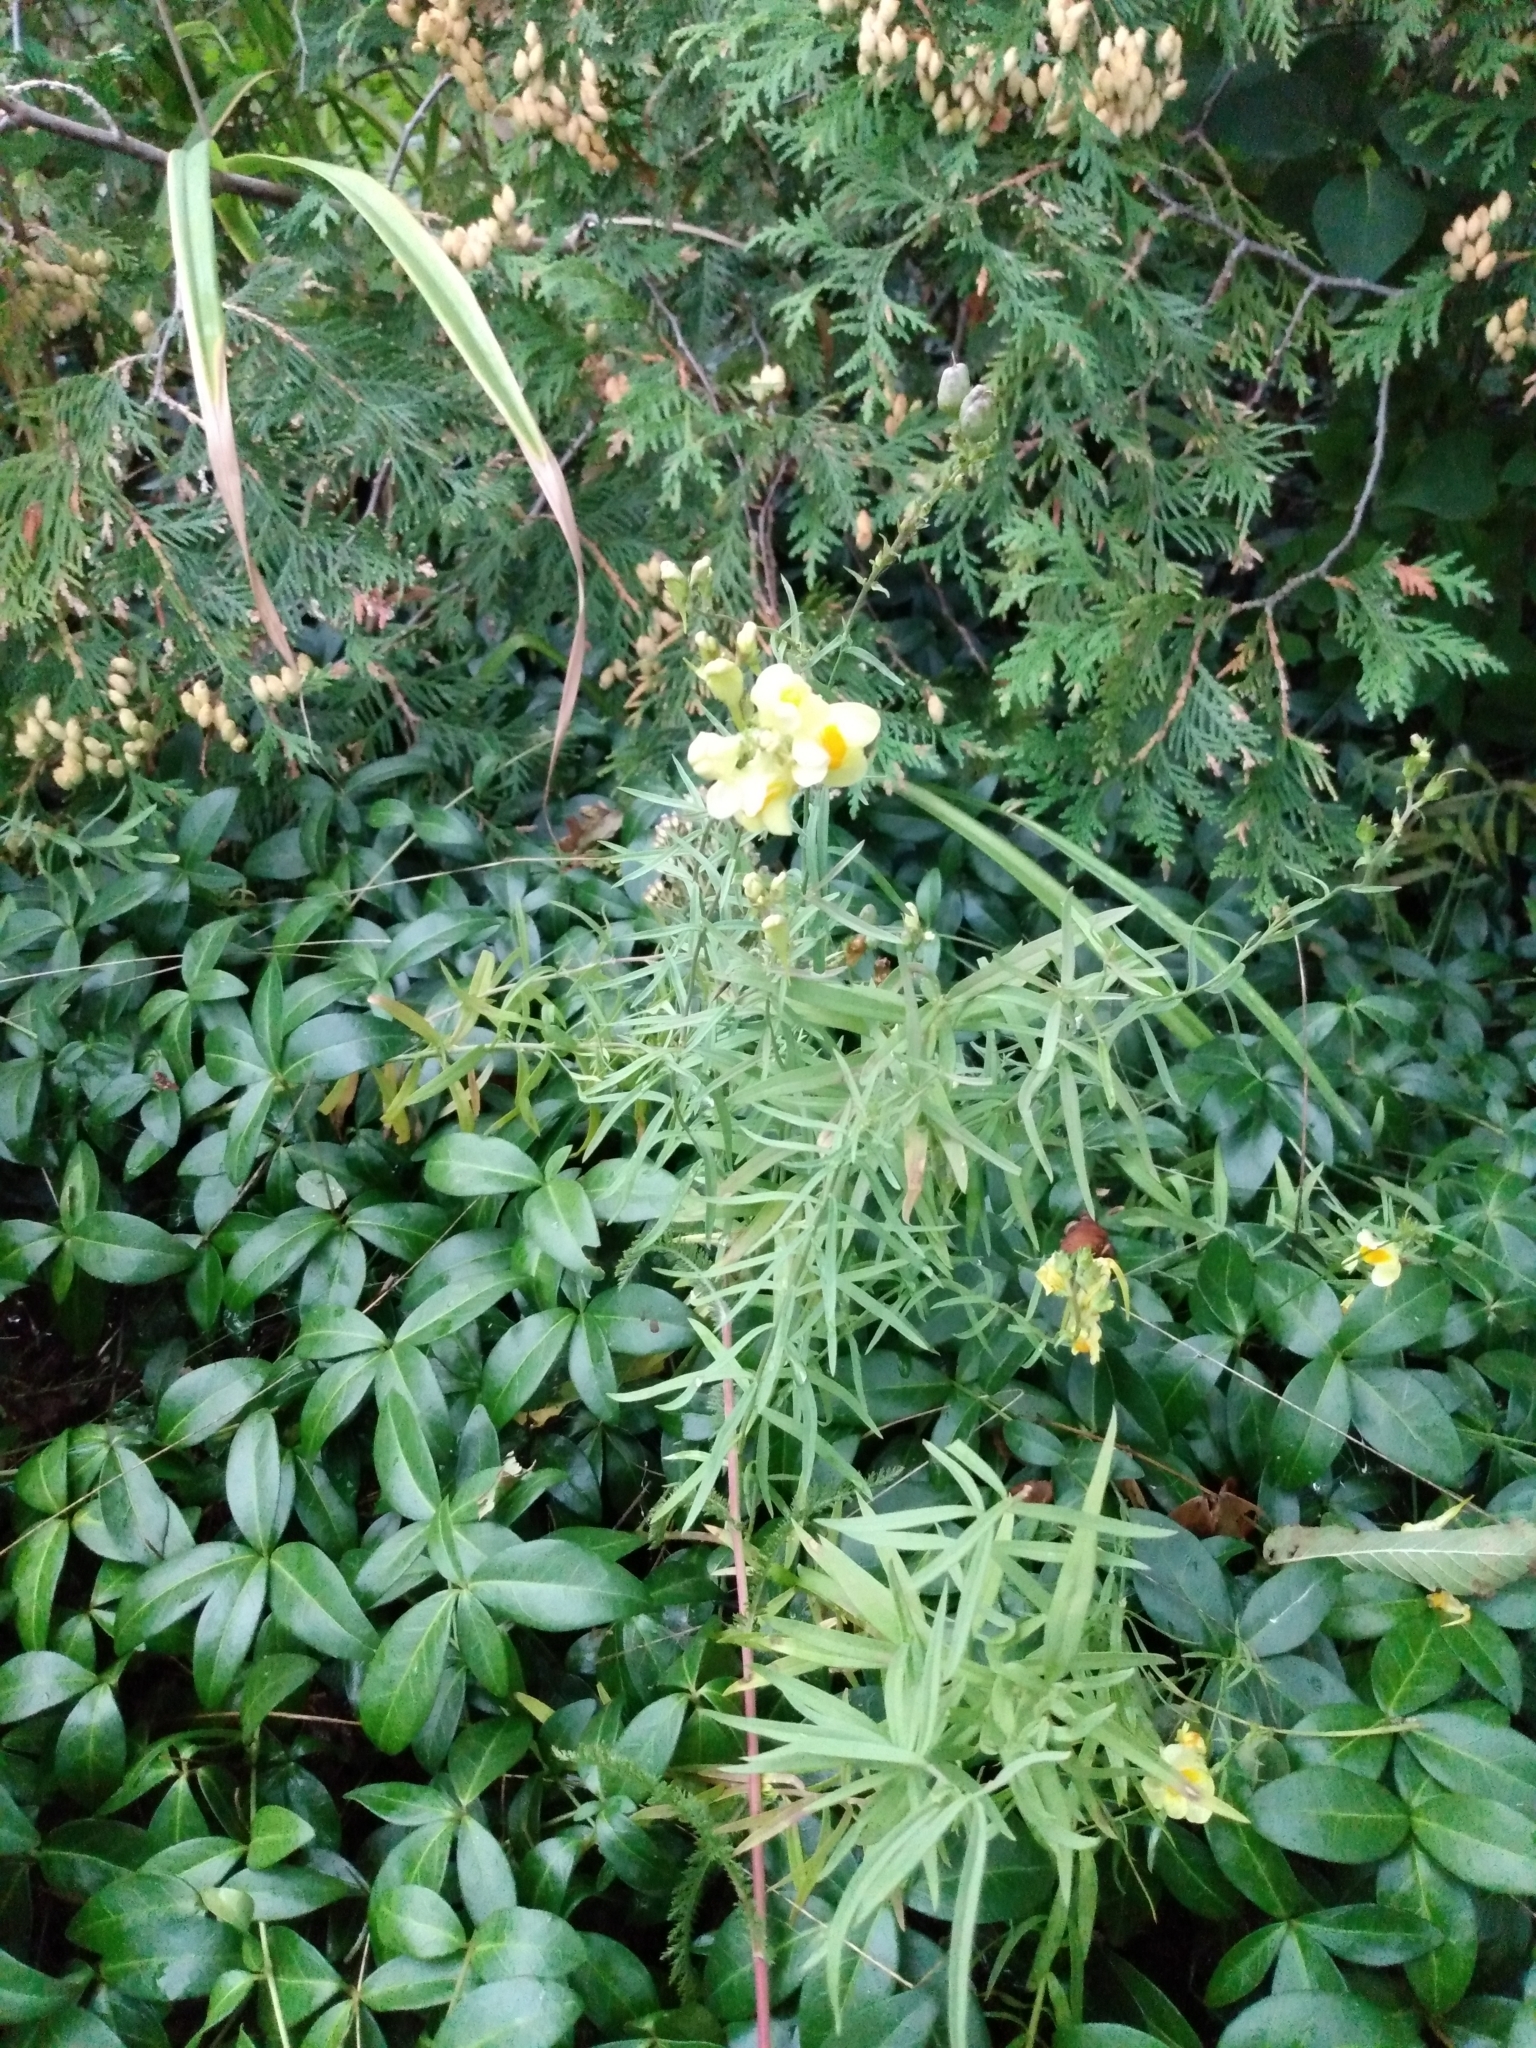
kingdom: Plantae
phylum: Tracheophyta
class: Magnoliopsida
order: Lamiales
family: Plantaginaceae
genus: Linaria
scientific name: Linaria vulgaris
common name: Butter and eggs
